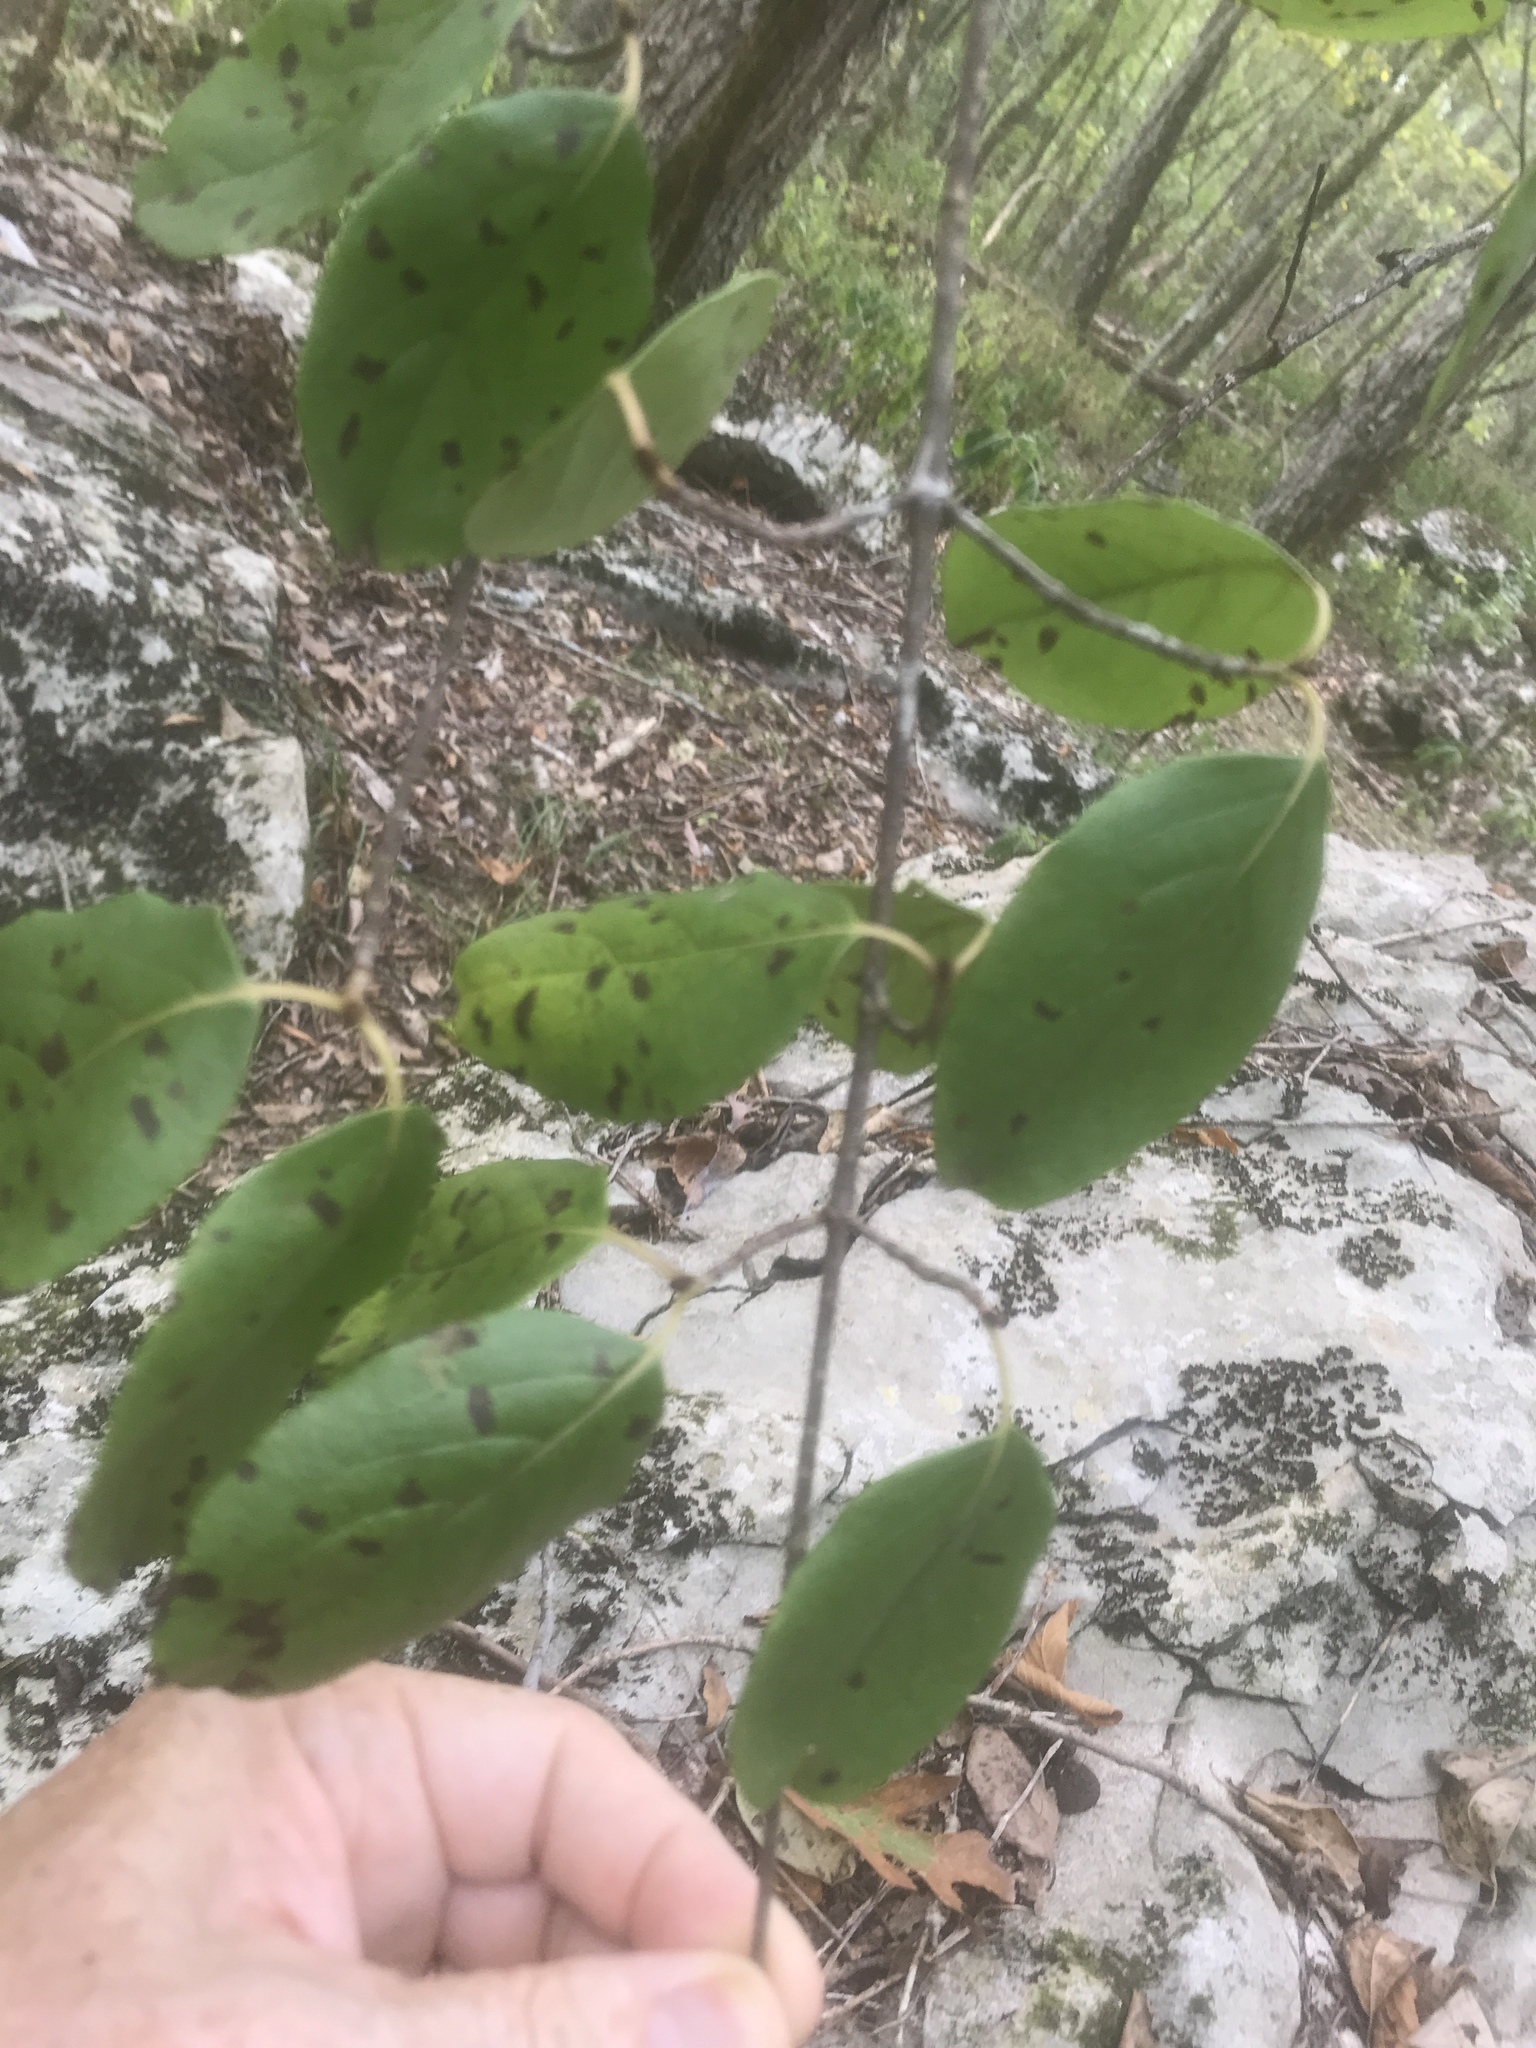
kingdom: Plantae
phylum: Tracheophyta
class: Magnoliopsida
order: Ericales
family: Ebenaceae
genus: Diospyros
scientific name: Diospyros virginiana
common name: Persimmon
